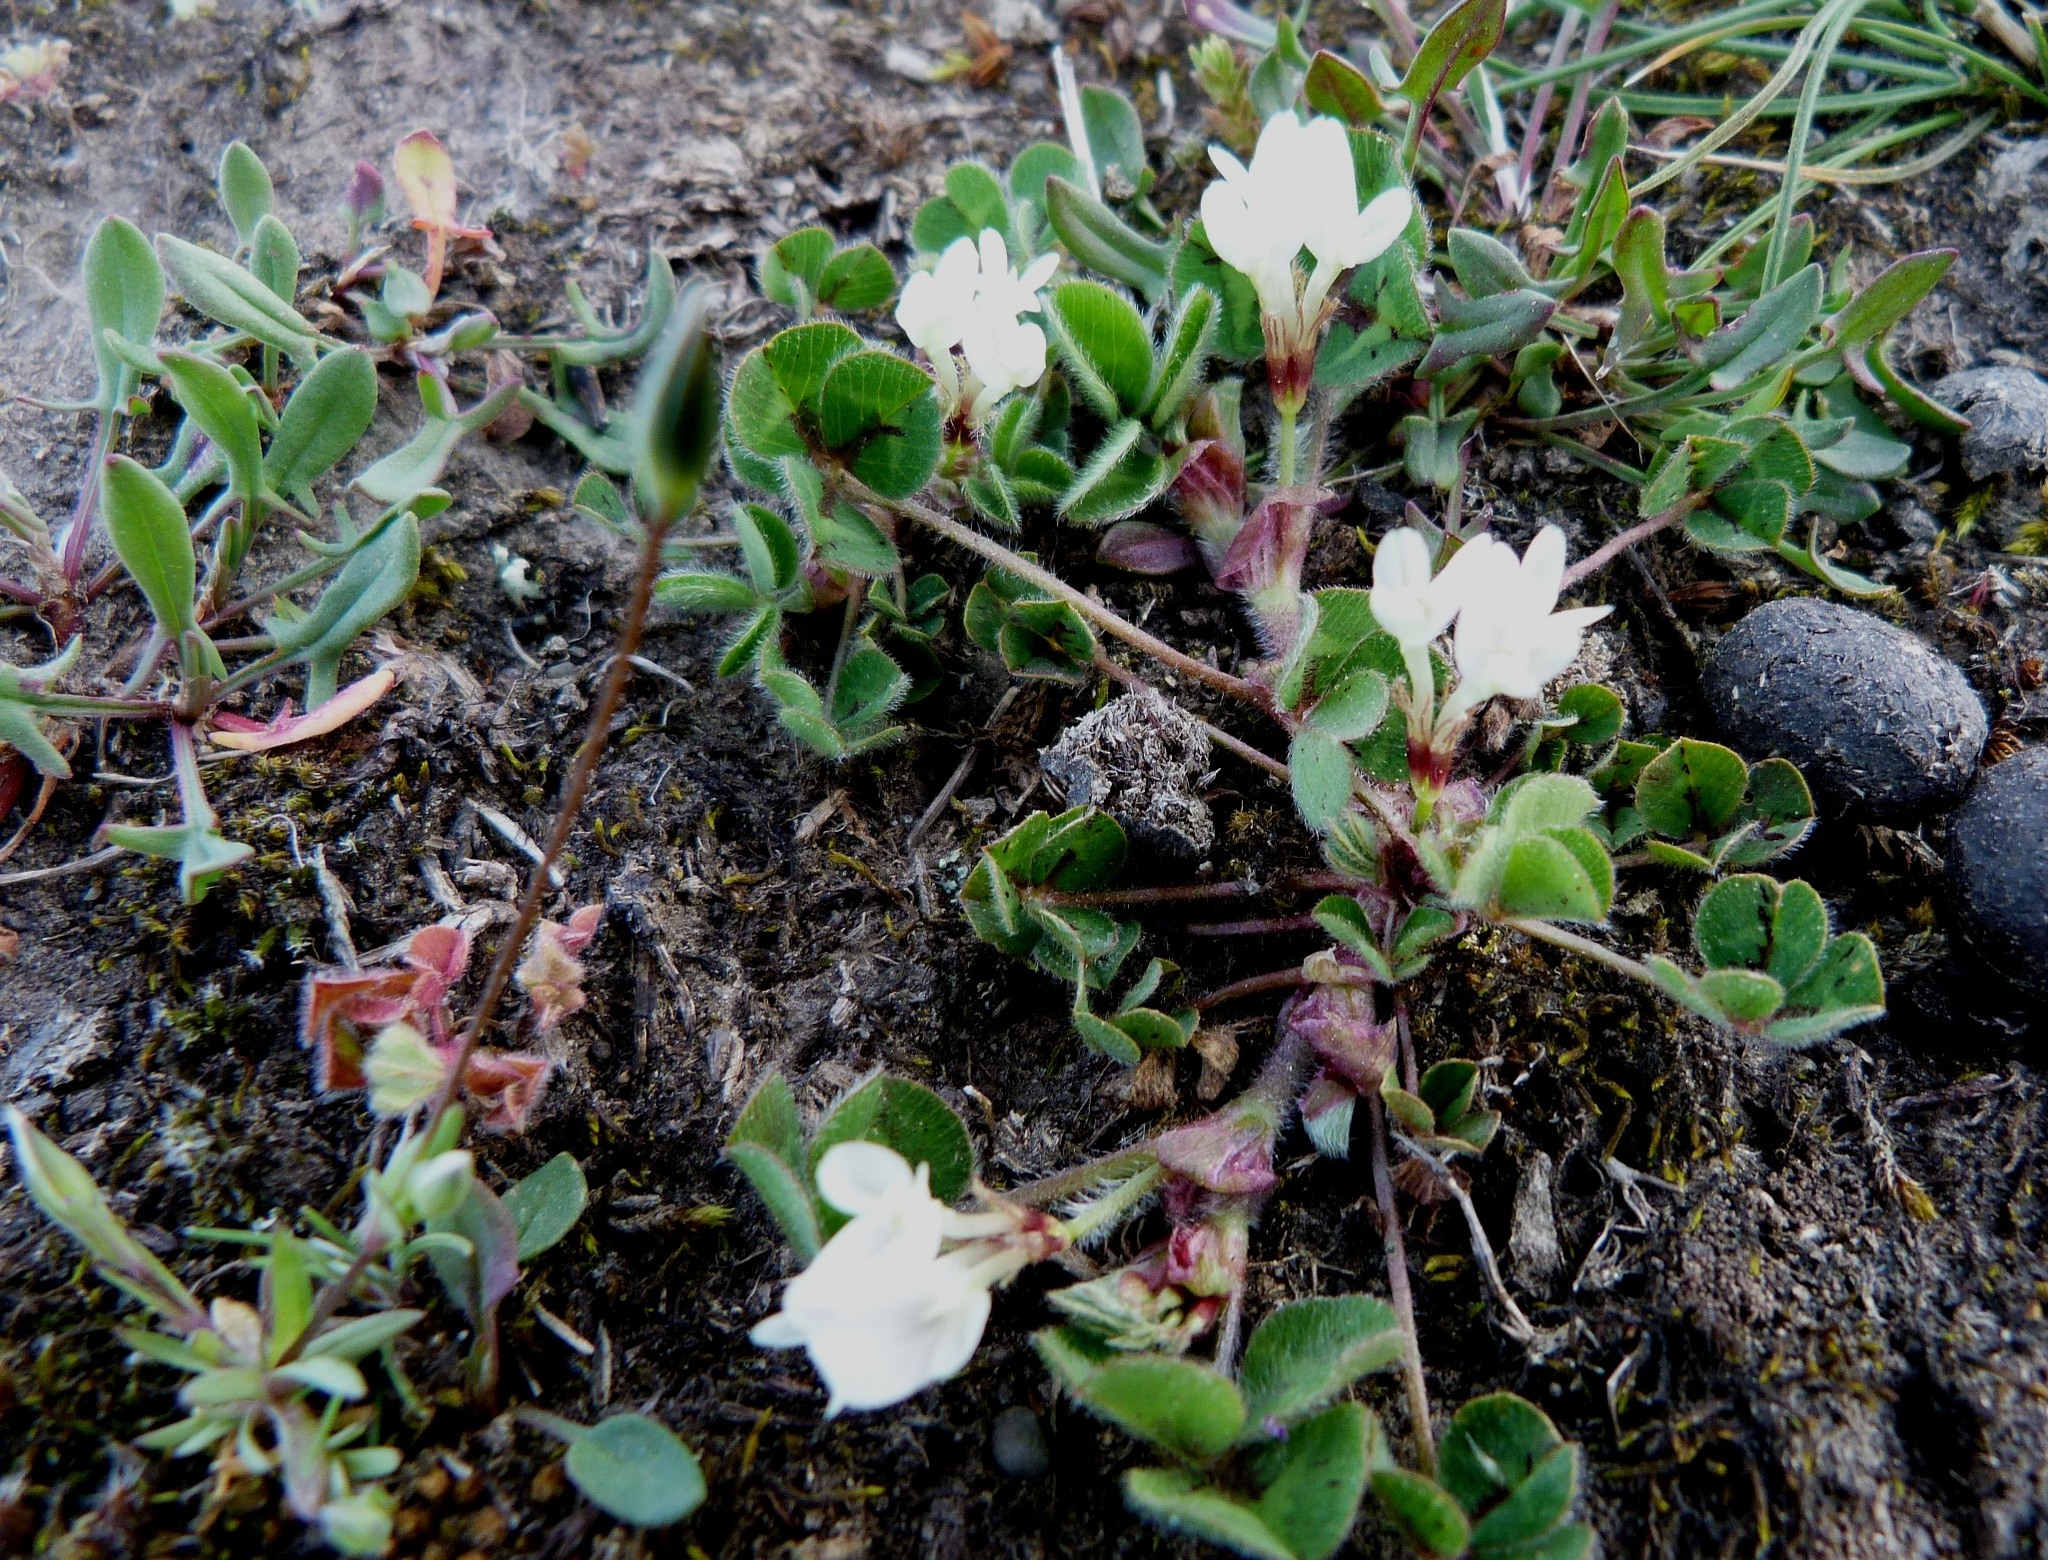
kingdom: Plantae
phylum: Tracheophyta
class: Magnoliopsida
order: Fabales
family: Fabaceae
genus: Trifolium
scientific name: Trifolium subterraneum
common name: Subterranean clover
